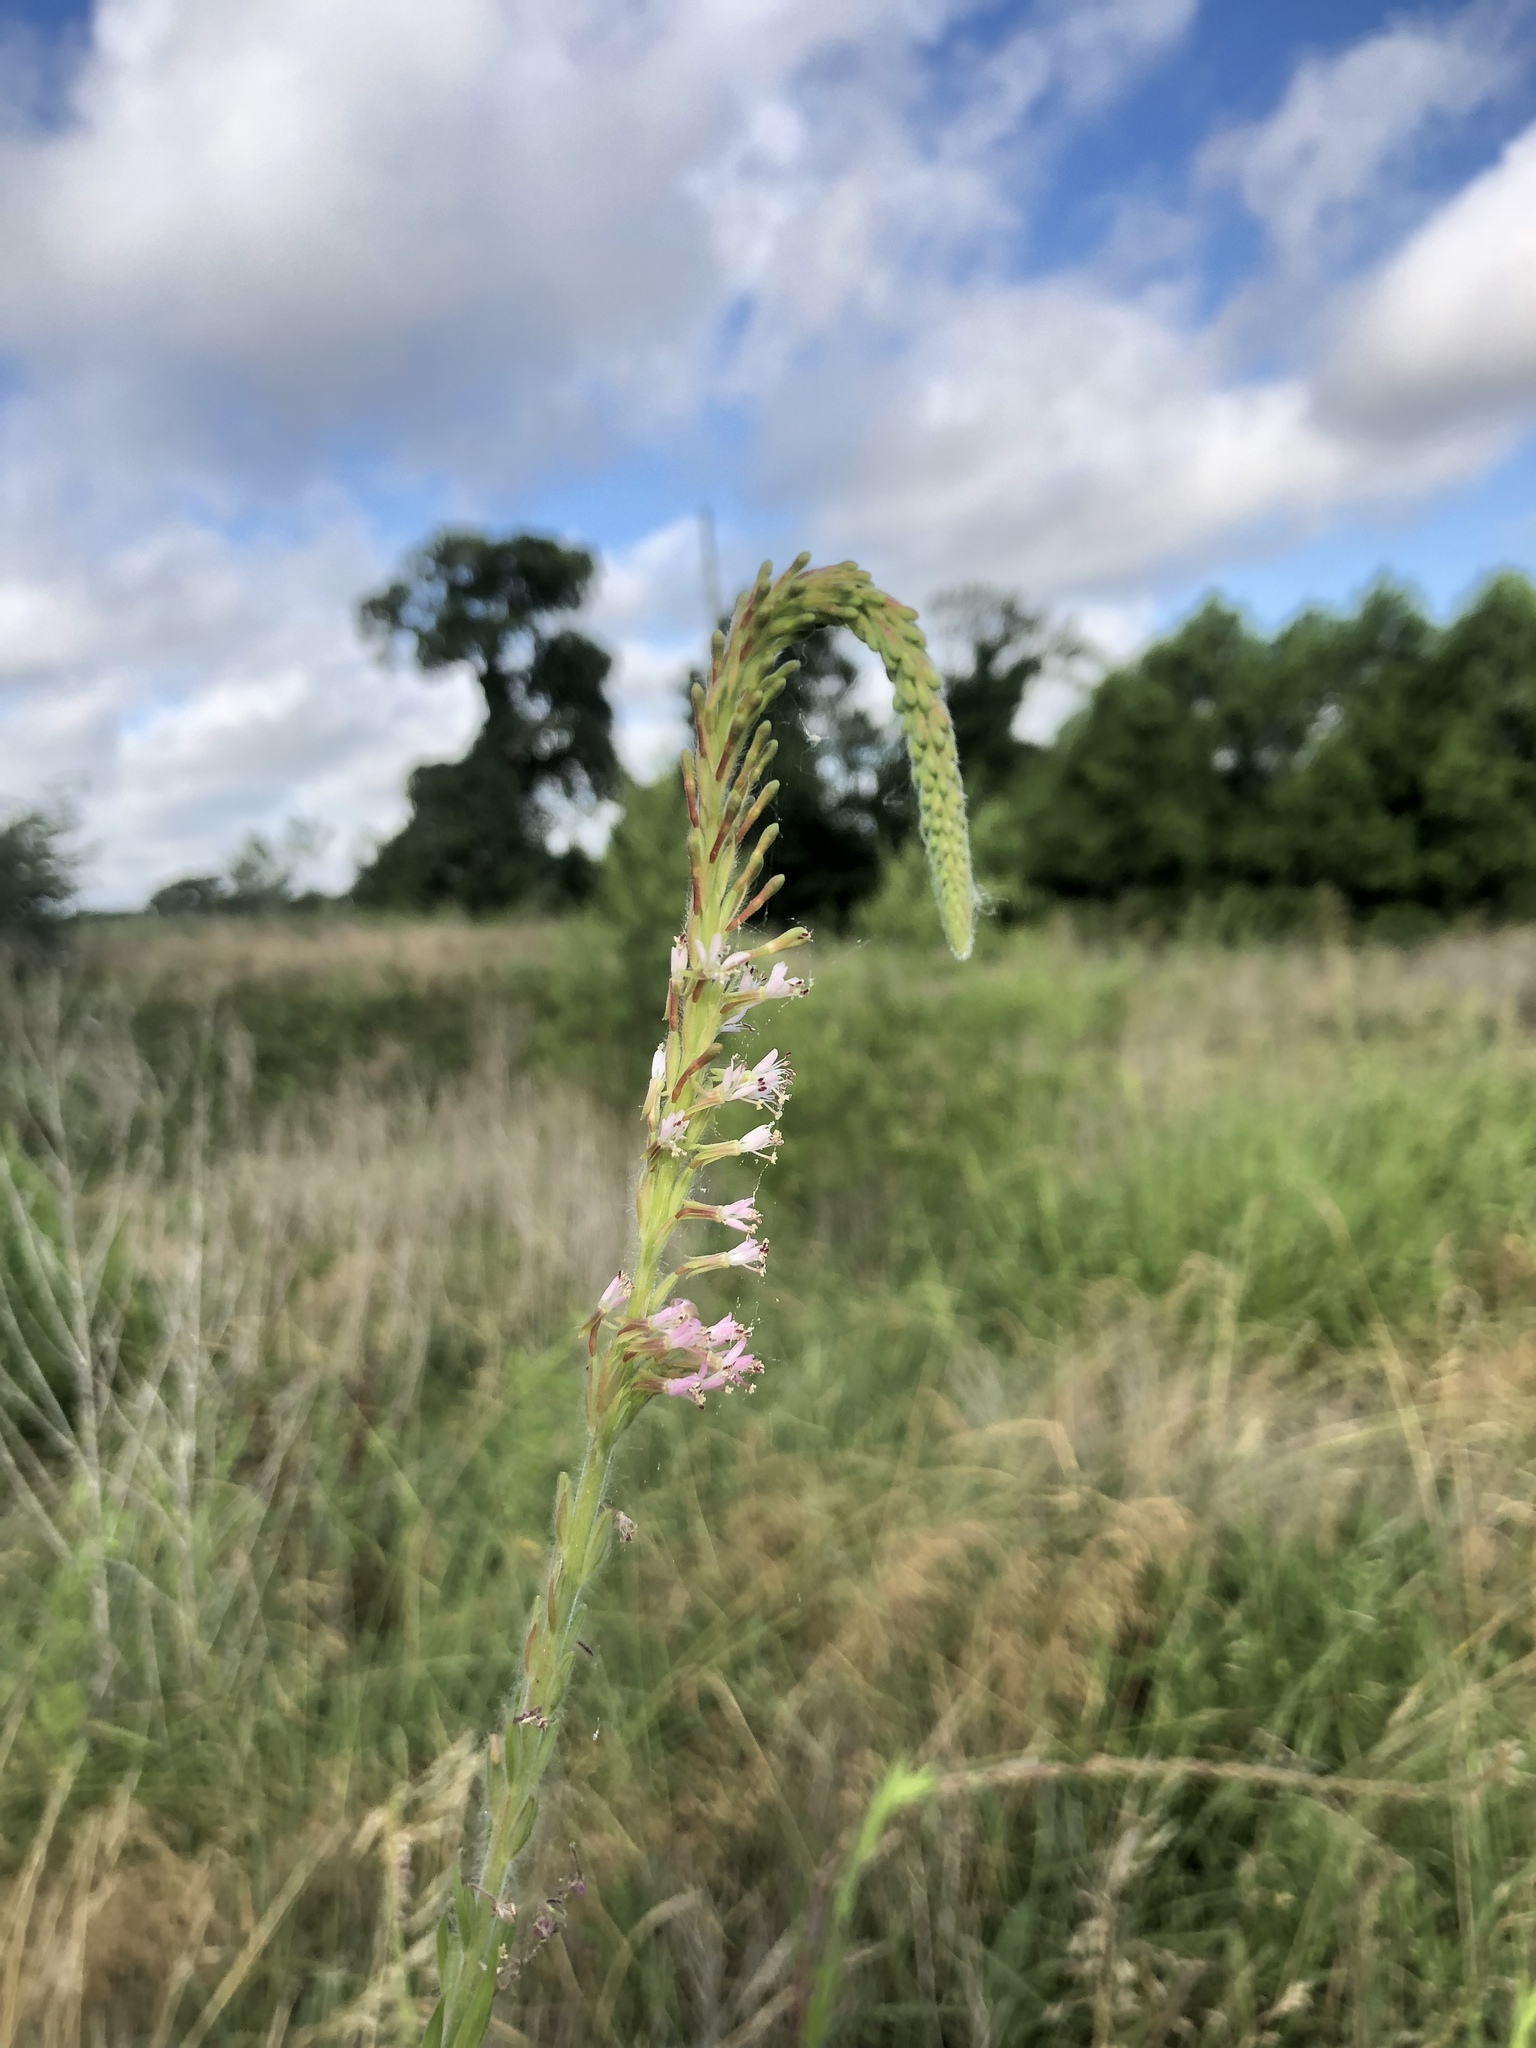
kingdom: Plantae
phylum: Tracheophyta
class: Magnoliopsida
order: Myrtales
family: Onagraceae
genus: Oenothera
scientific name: Oenothera curtiflora
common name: Velvetweed
